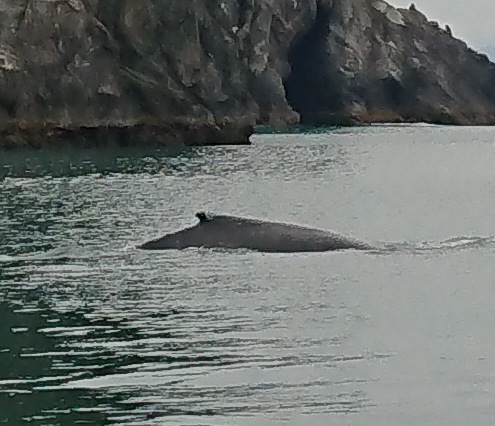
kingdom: Animalia
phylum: Chordata
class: Mammalia
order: Cetacea
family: Balaenopteridae
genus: Megaptera
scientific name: Megaptera novaeangliae
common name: Humpback whale
